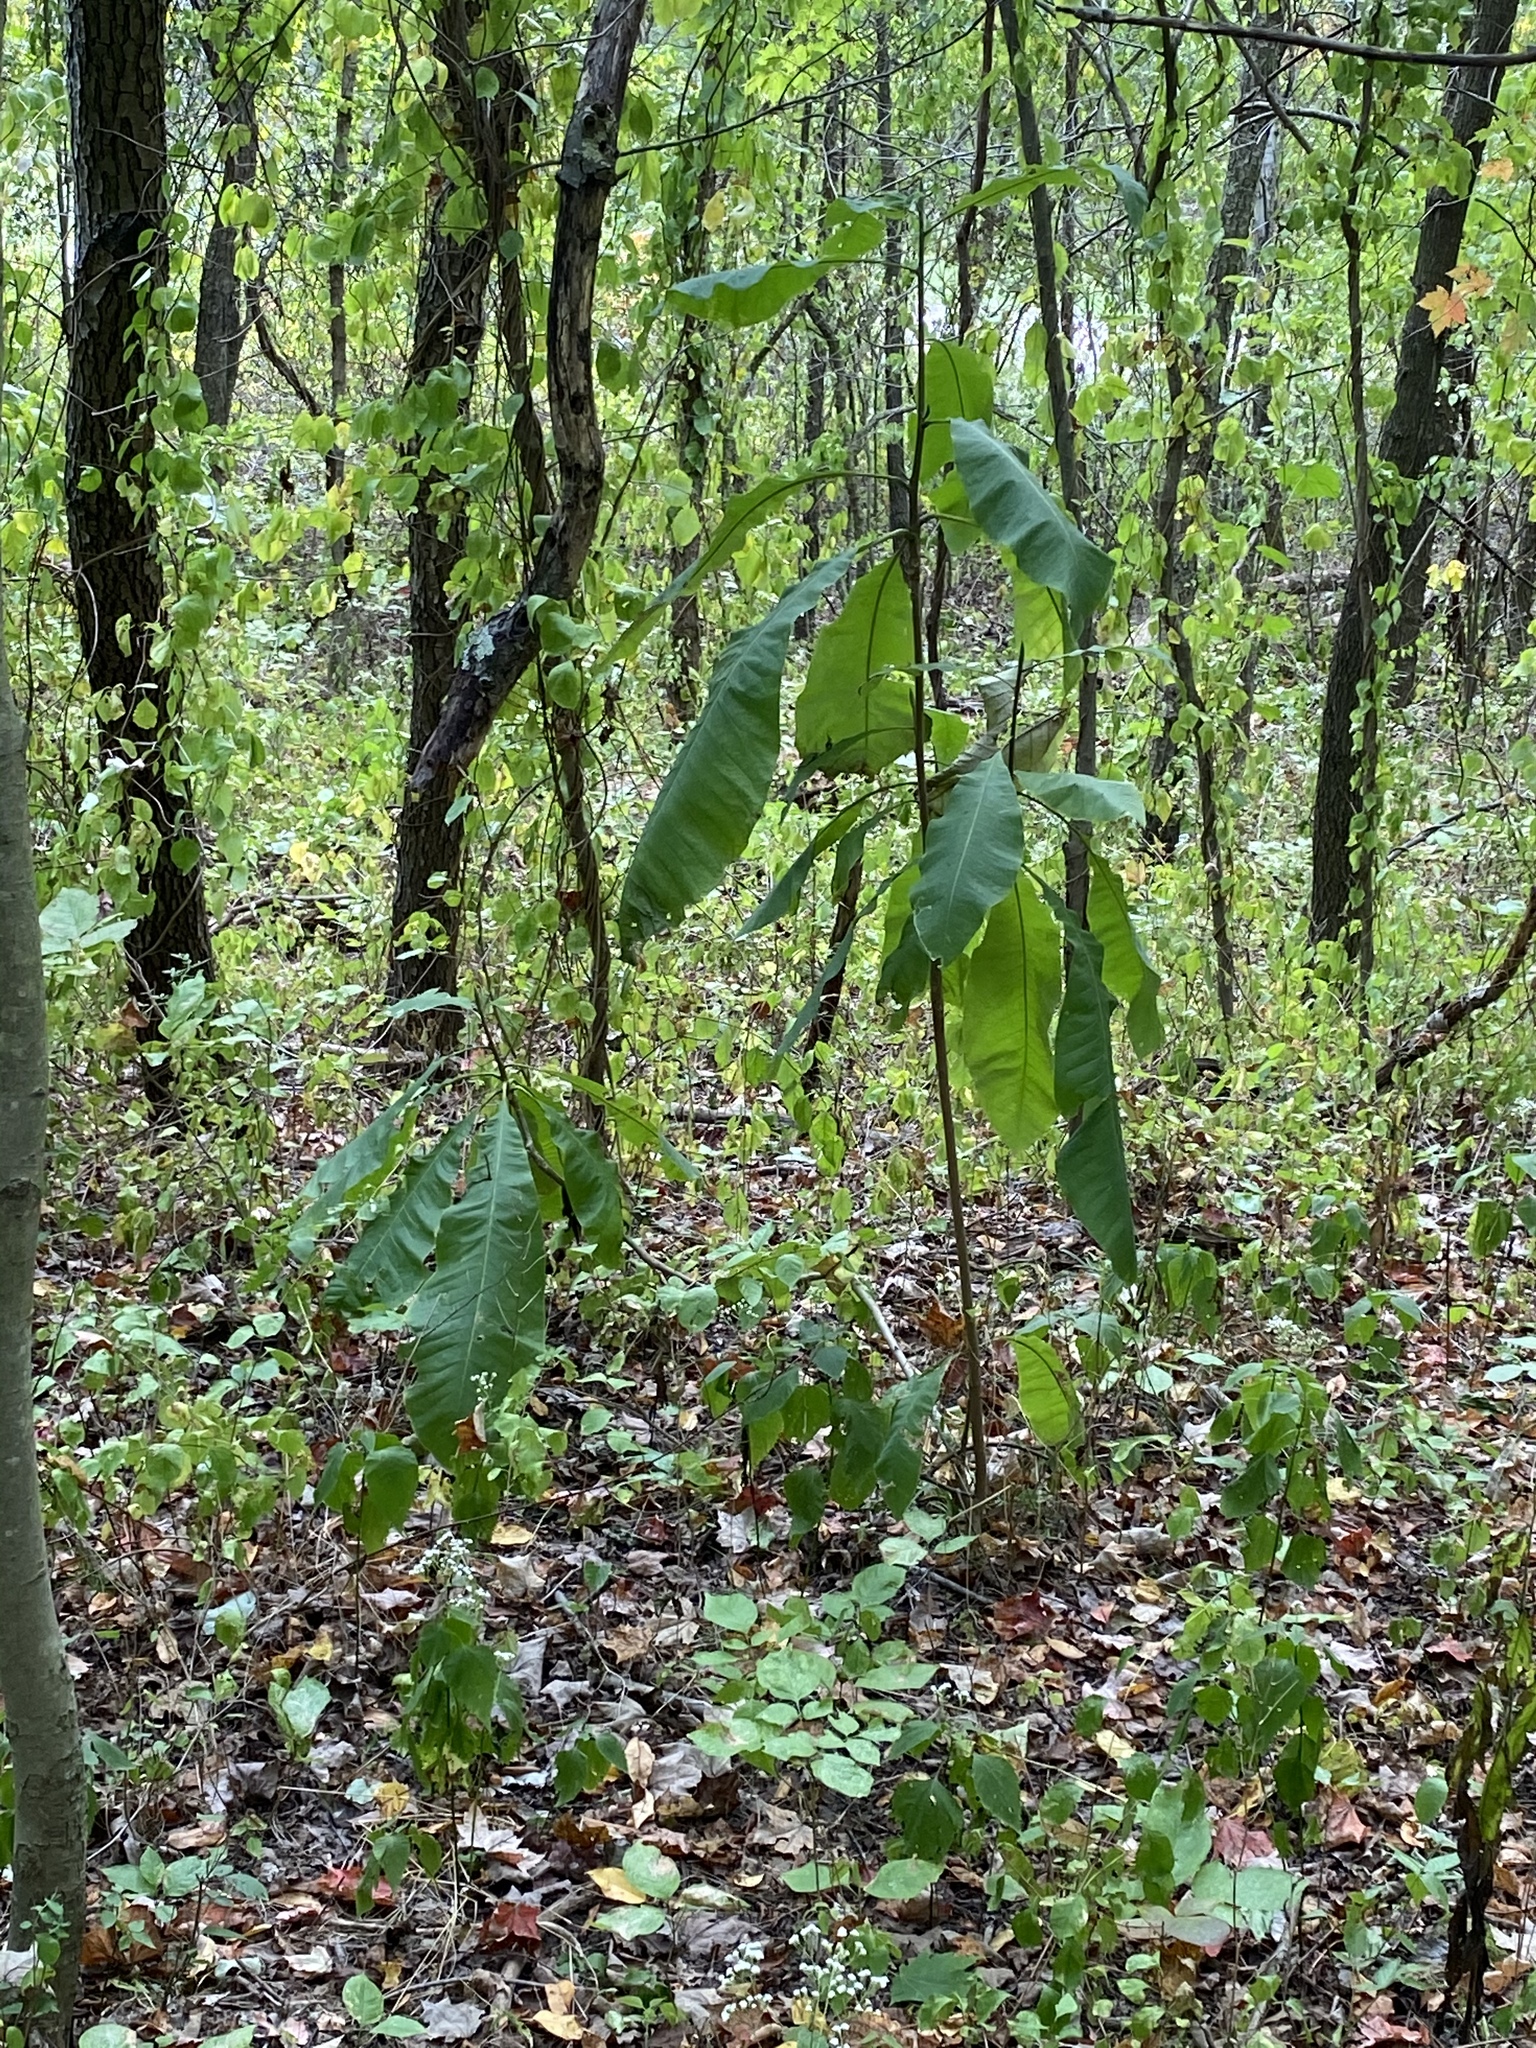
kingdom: Plantae
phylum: Tracheophyta
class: Magnoliopsida
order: Magnoliales
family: Magnoliaceae
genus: Magnolia
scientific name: Magnolia tripetala
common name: Umbrella magnolia
